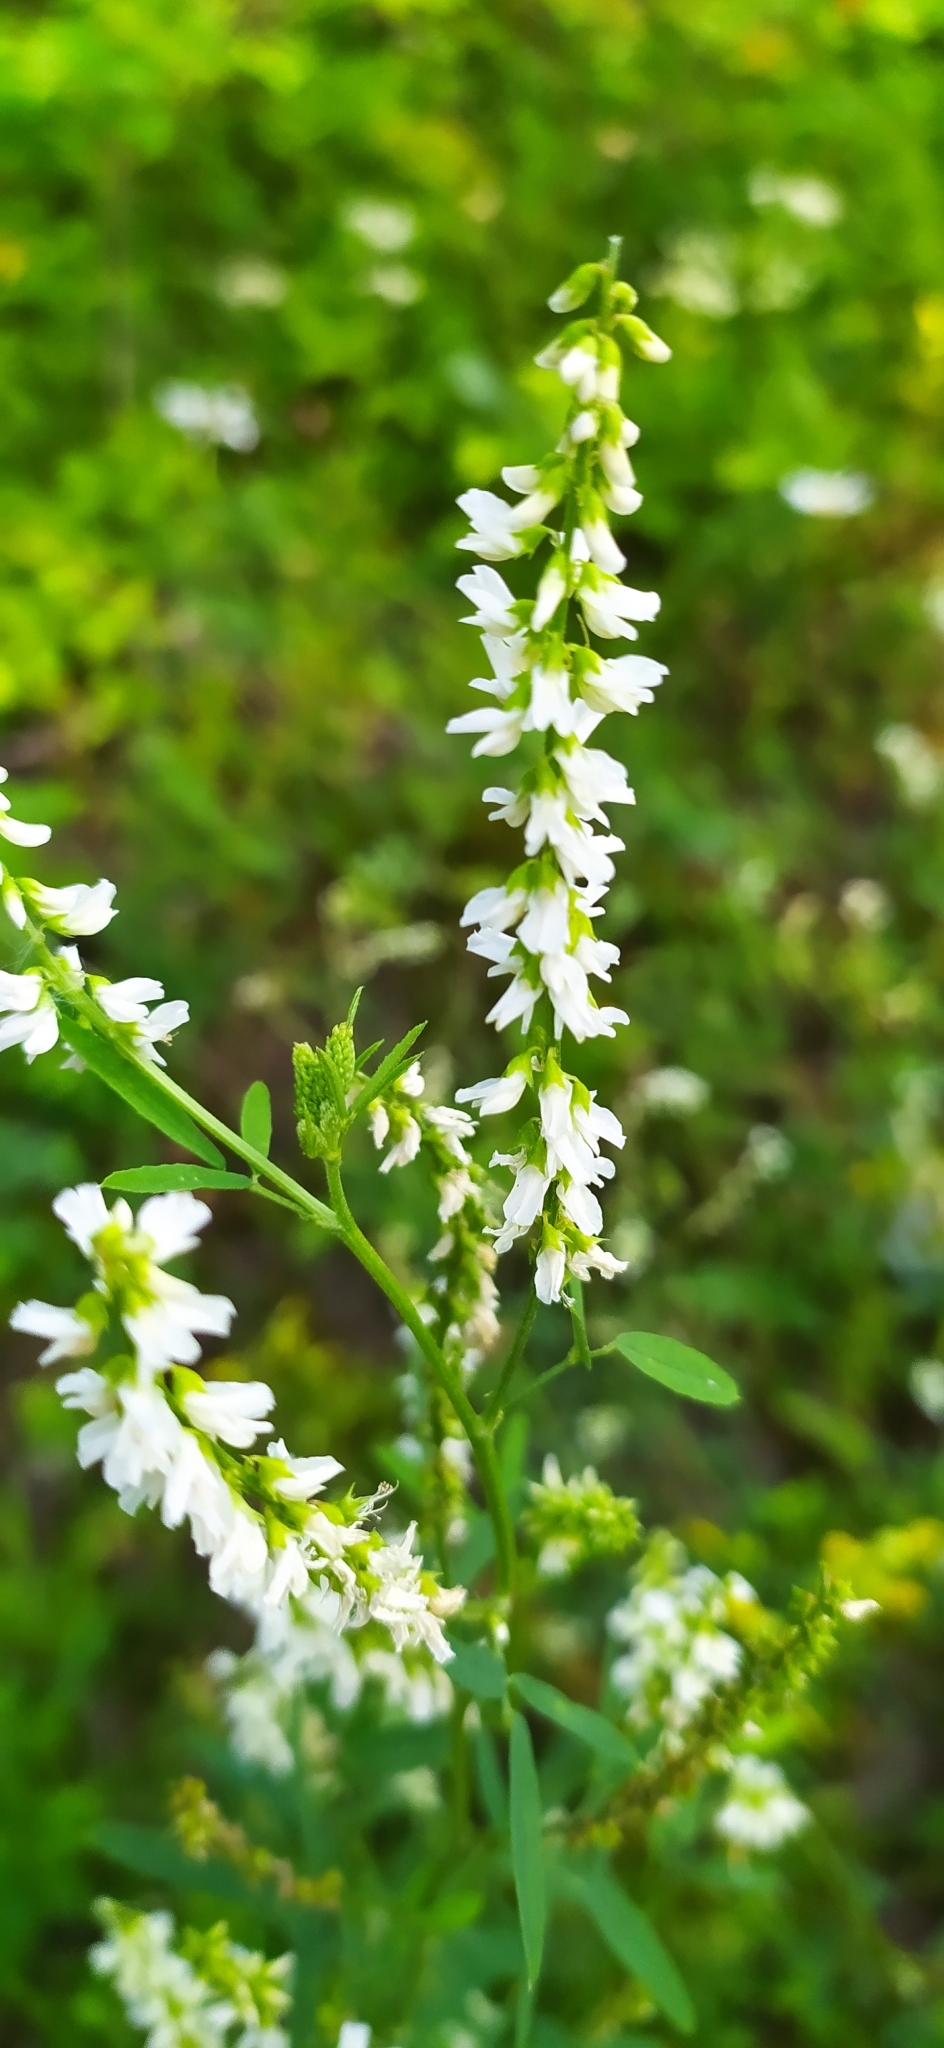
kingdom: Plantae
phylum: Tracheophyta
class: Magnoliopsida
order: Fabales
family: Fabaceae
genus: Melilotus
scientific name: Melilotus albus
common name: White melilot
